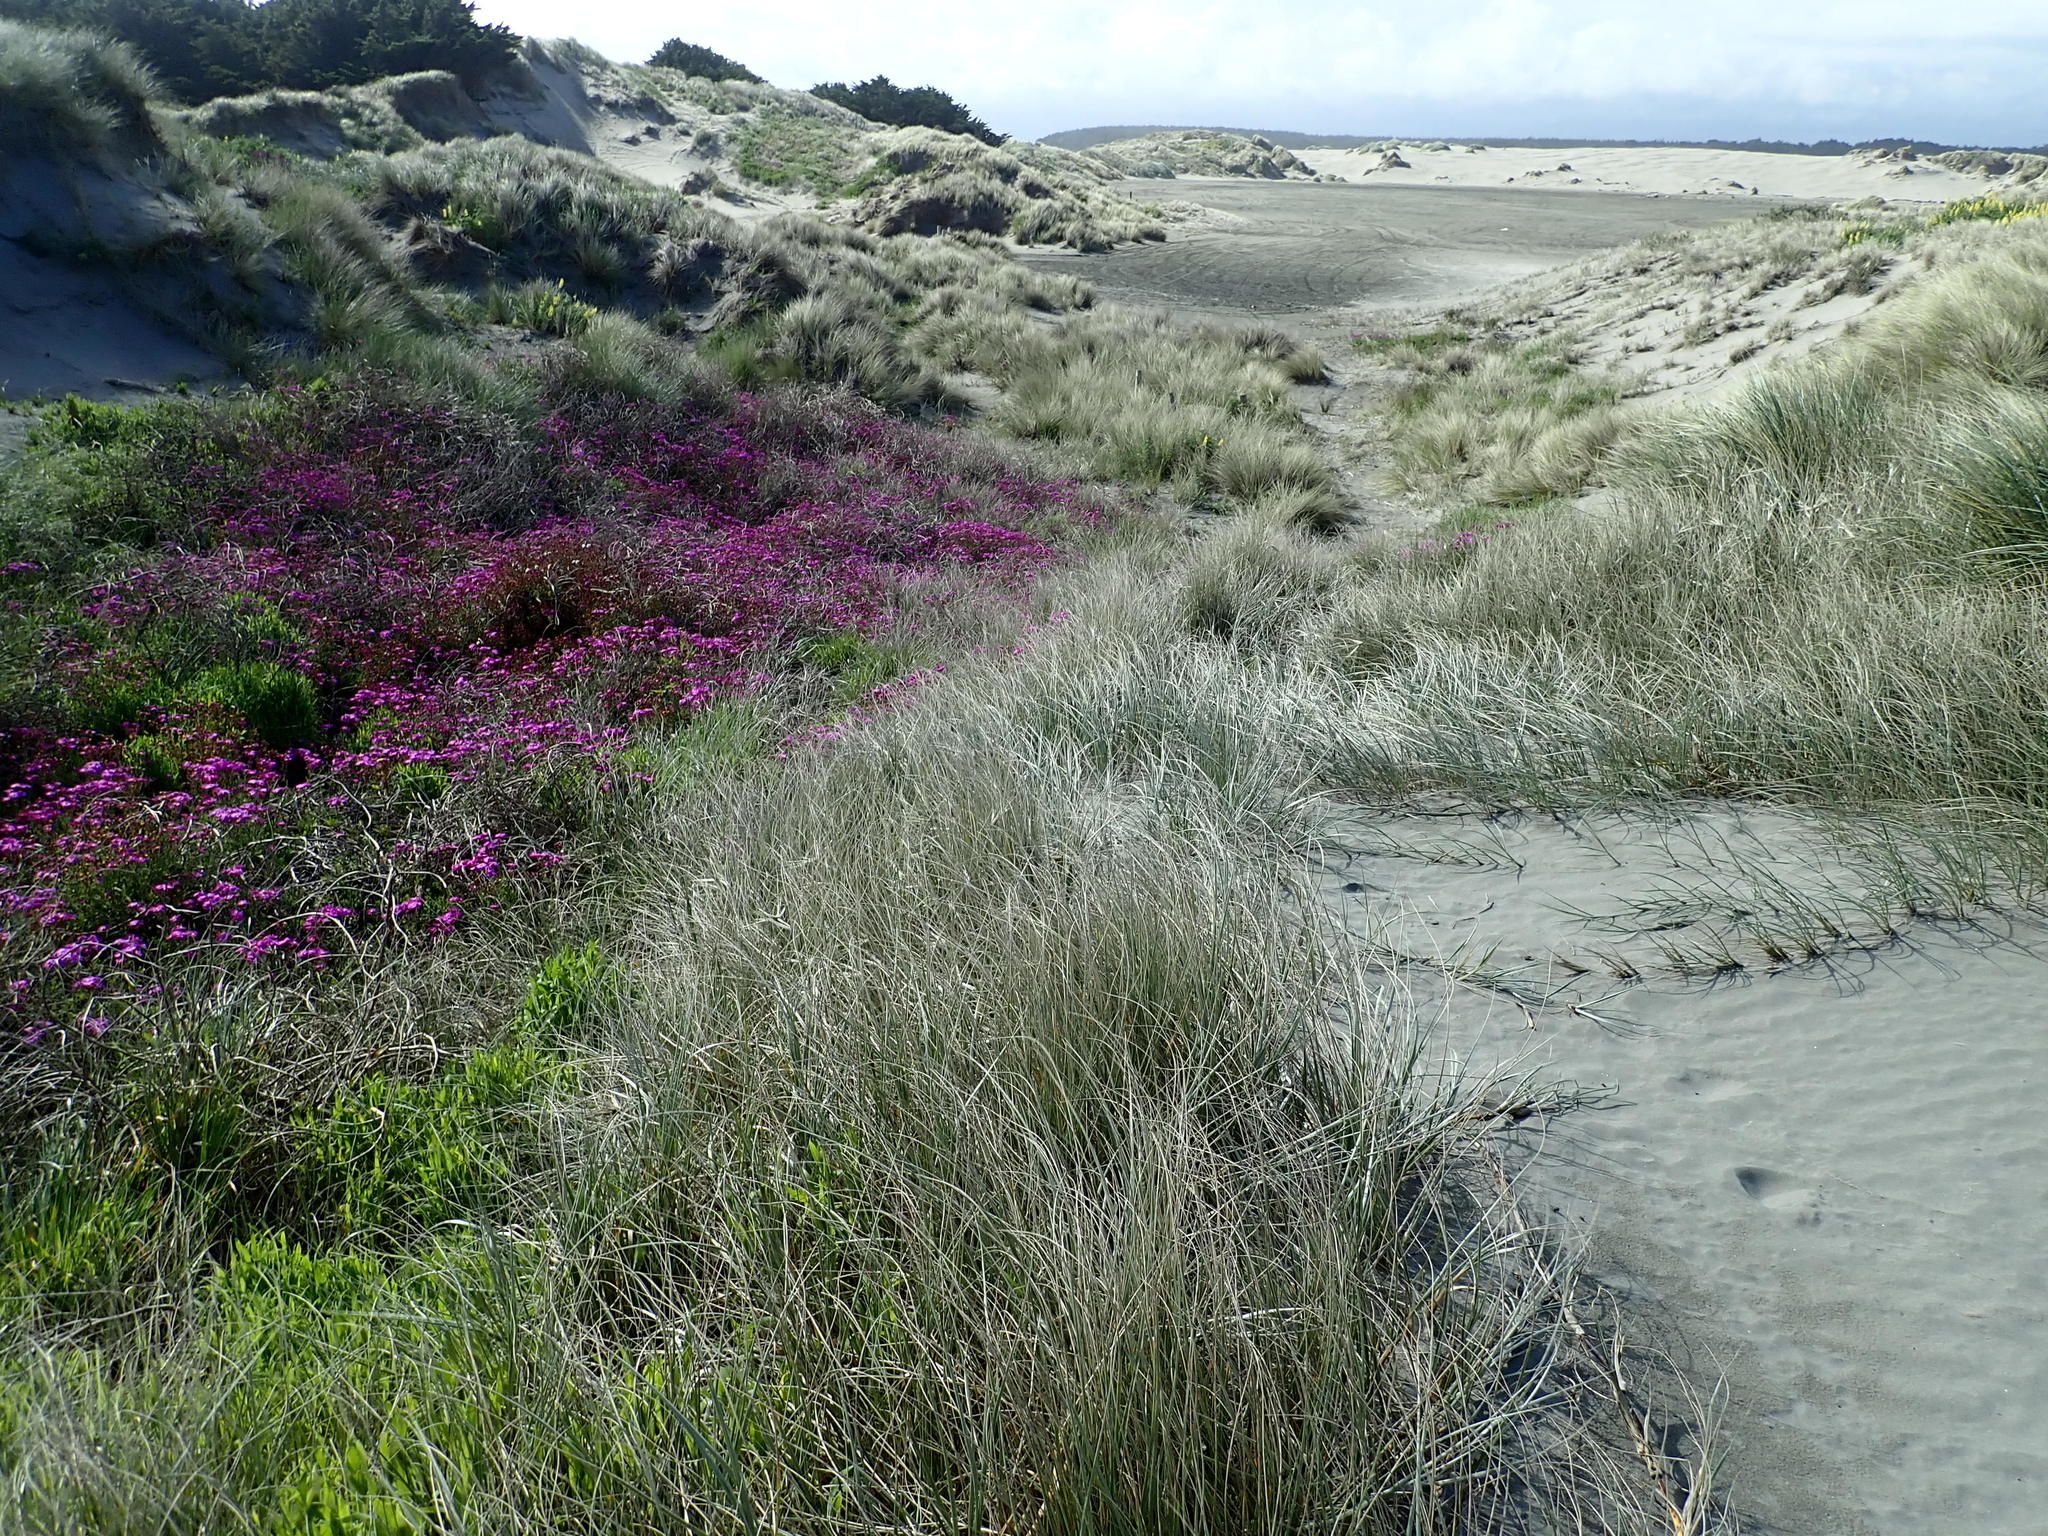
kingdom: Plantae
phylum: Tracheophyta
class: Magnoliopsida
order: Asterales
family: Asteraceae
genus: Senecio
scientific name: Senecio elegans
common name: Purple groundsel
